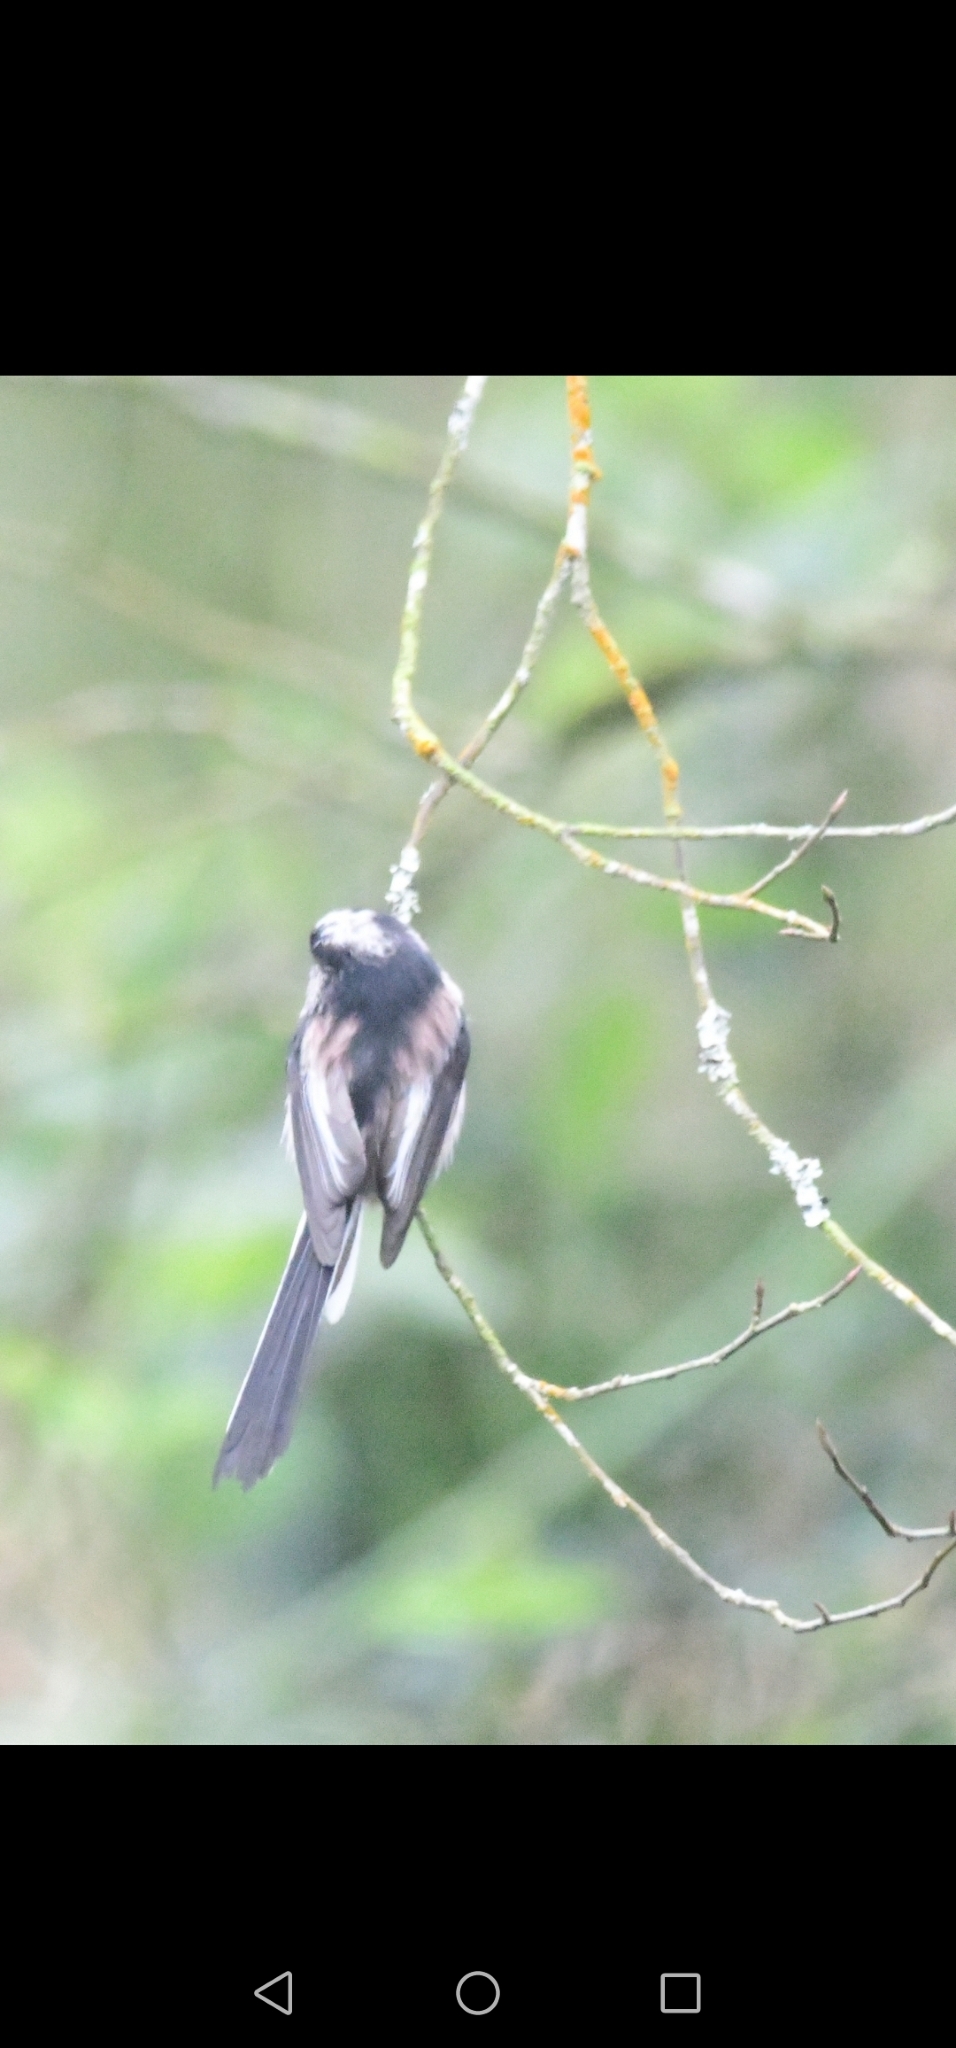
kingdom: Animalia
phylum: Chordata
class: Aves
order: Passeriformes
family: Aegithalidae
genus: Aegithalos
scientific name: Aegithalos caudatus
